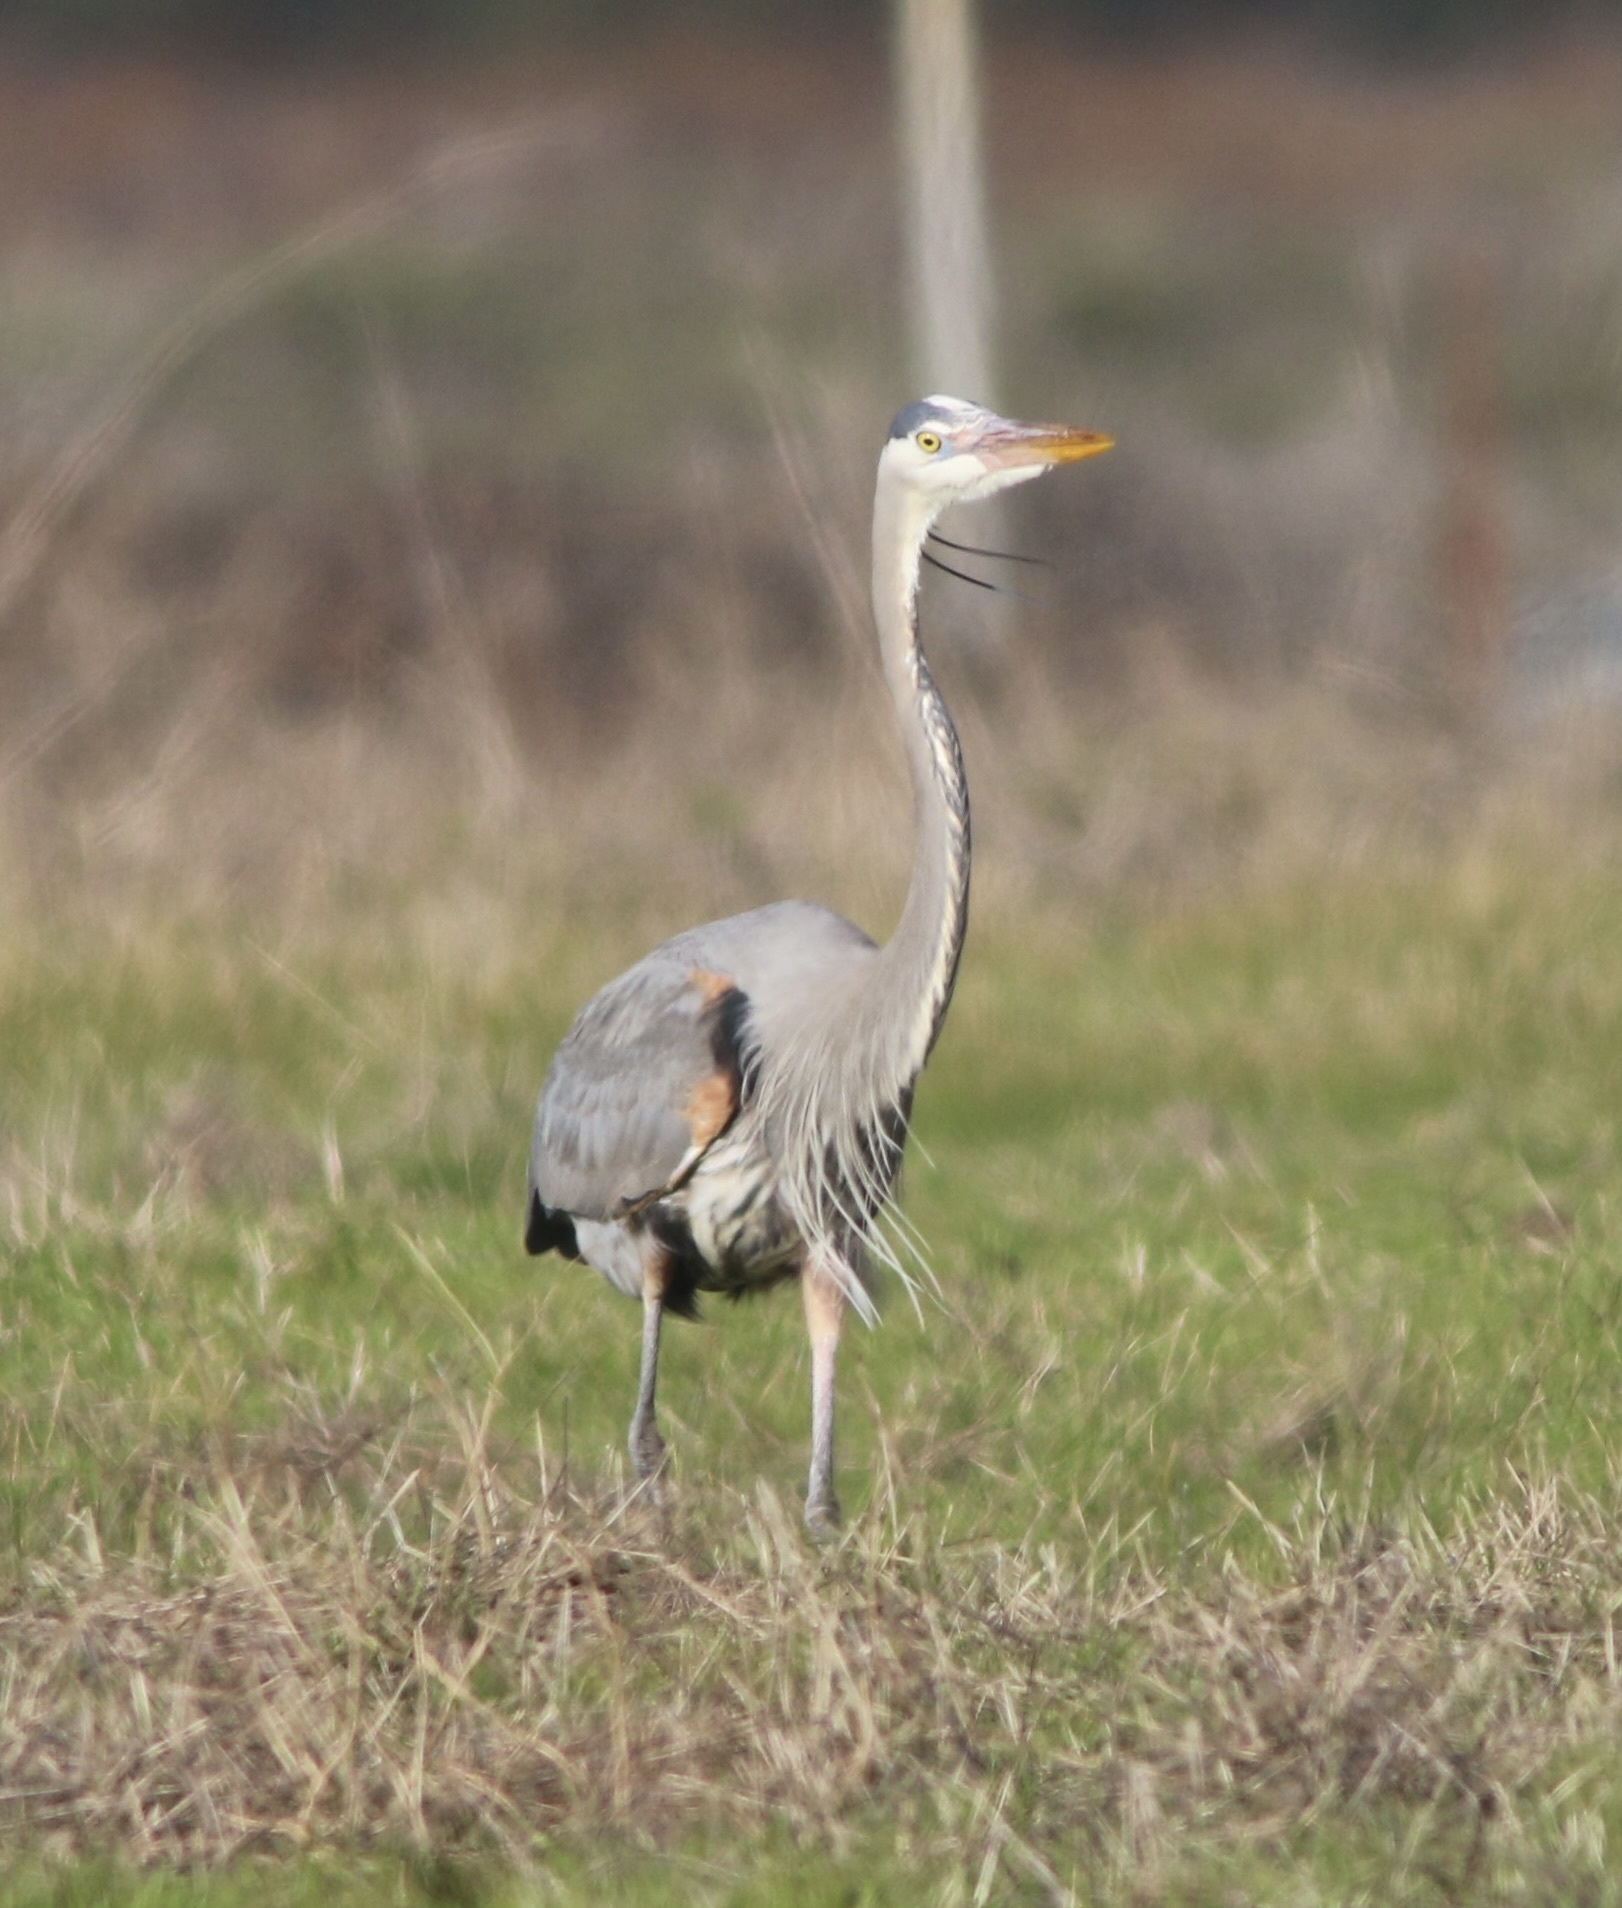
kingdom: Animalia
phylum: Chordata
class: Aves
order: Pelecaniformes
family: Ardeidae
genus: Ardea
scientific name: Ardea herodias
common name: Great blue heron
